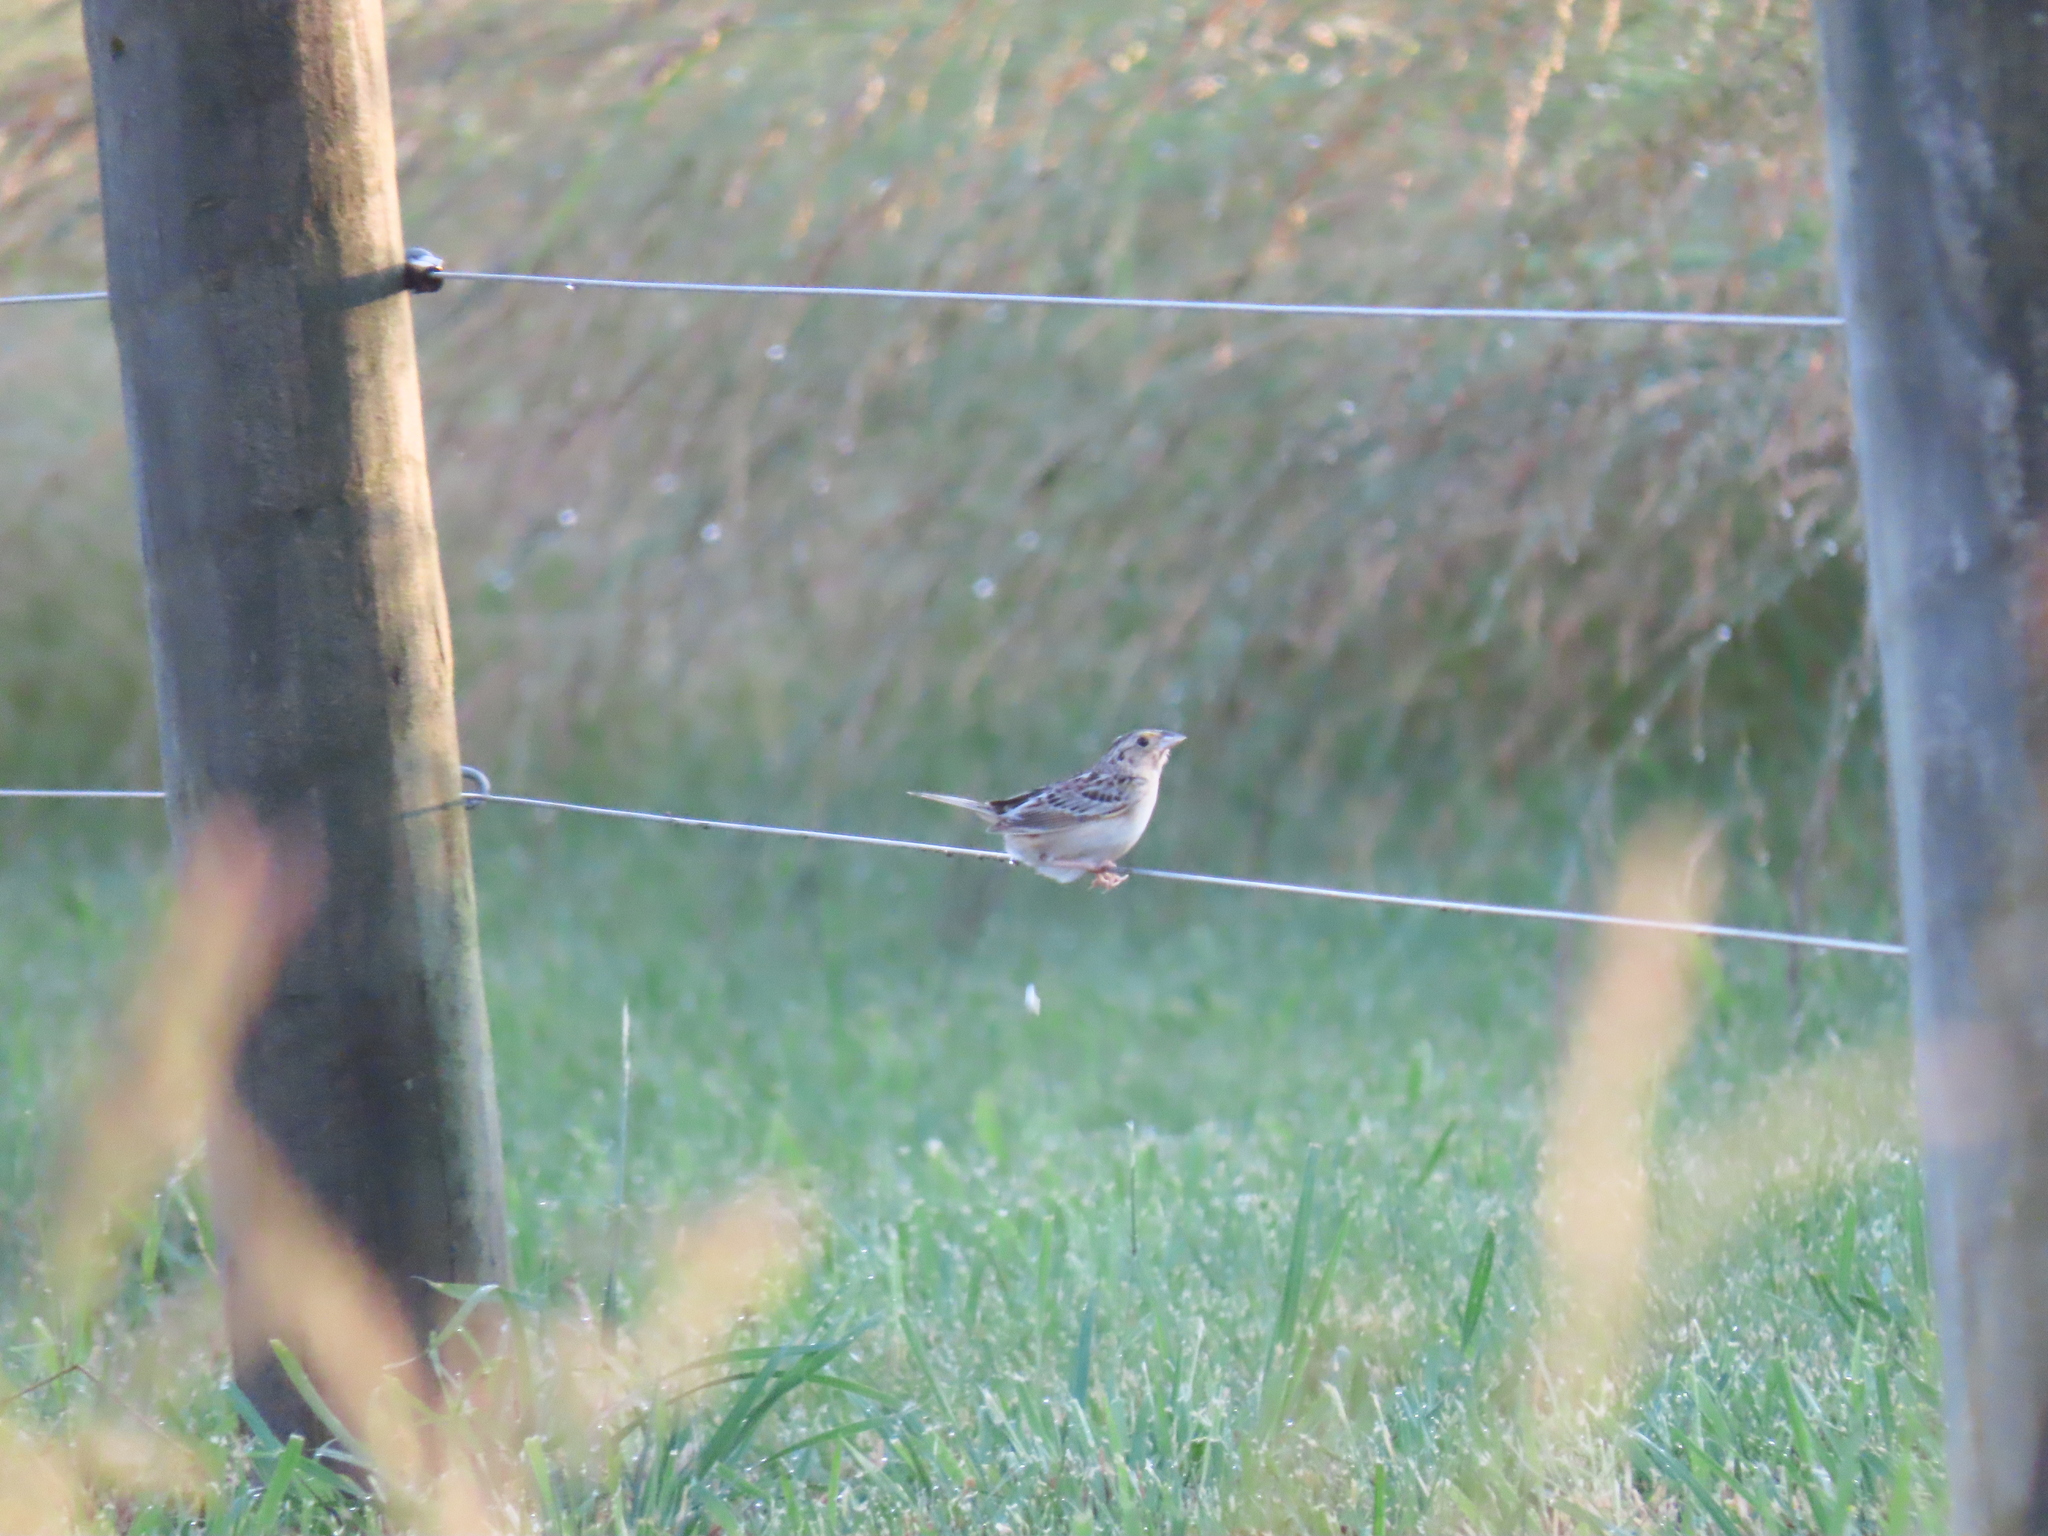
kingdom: Animalia
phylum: Chordata
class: Aves
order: Passeriformes
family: Passerellidae
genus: Ammodramus
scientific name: Ammodramus savannarum
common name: Grasshopper sparrow
